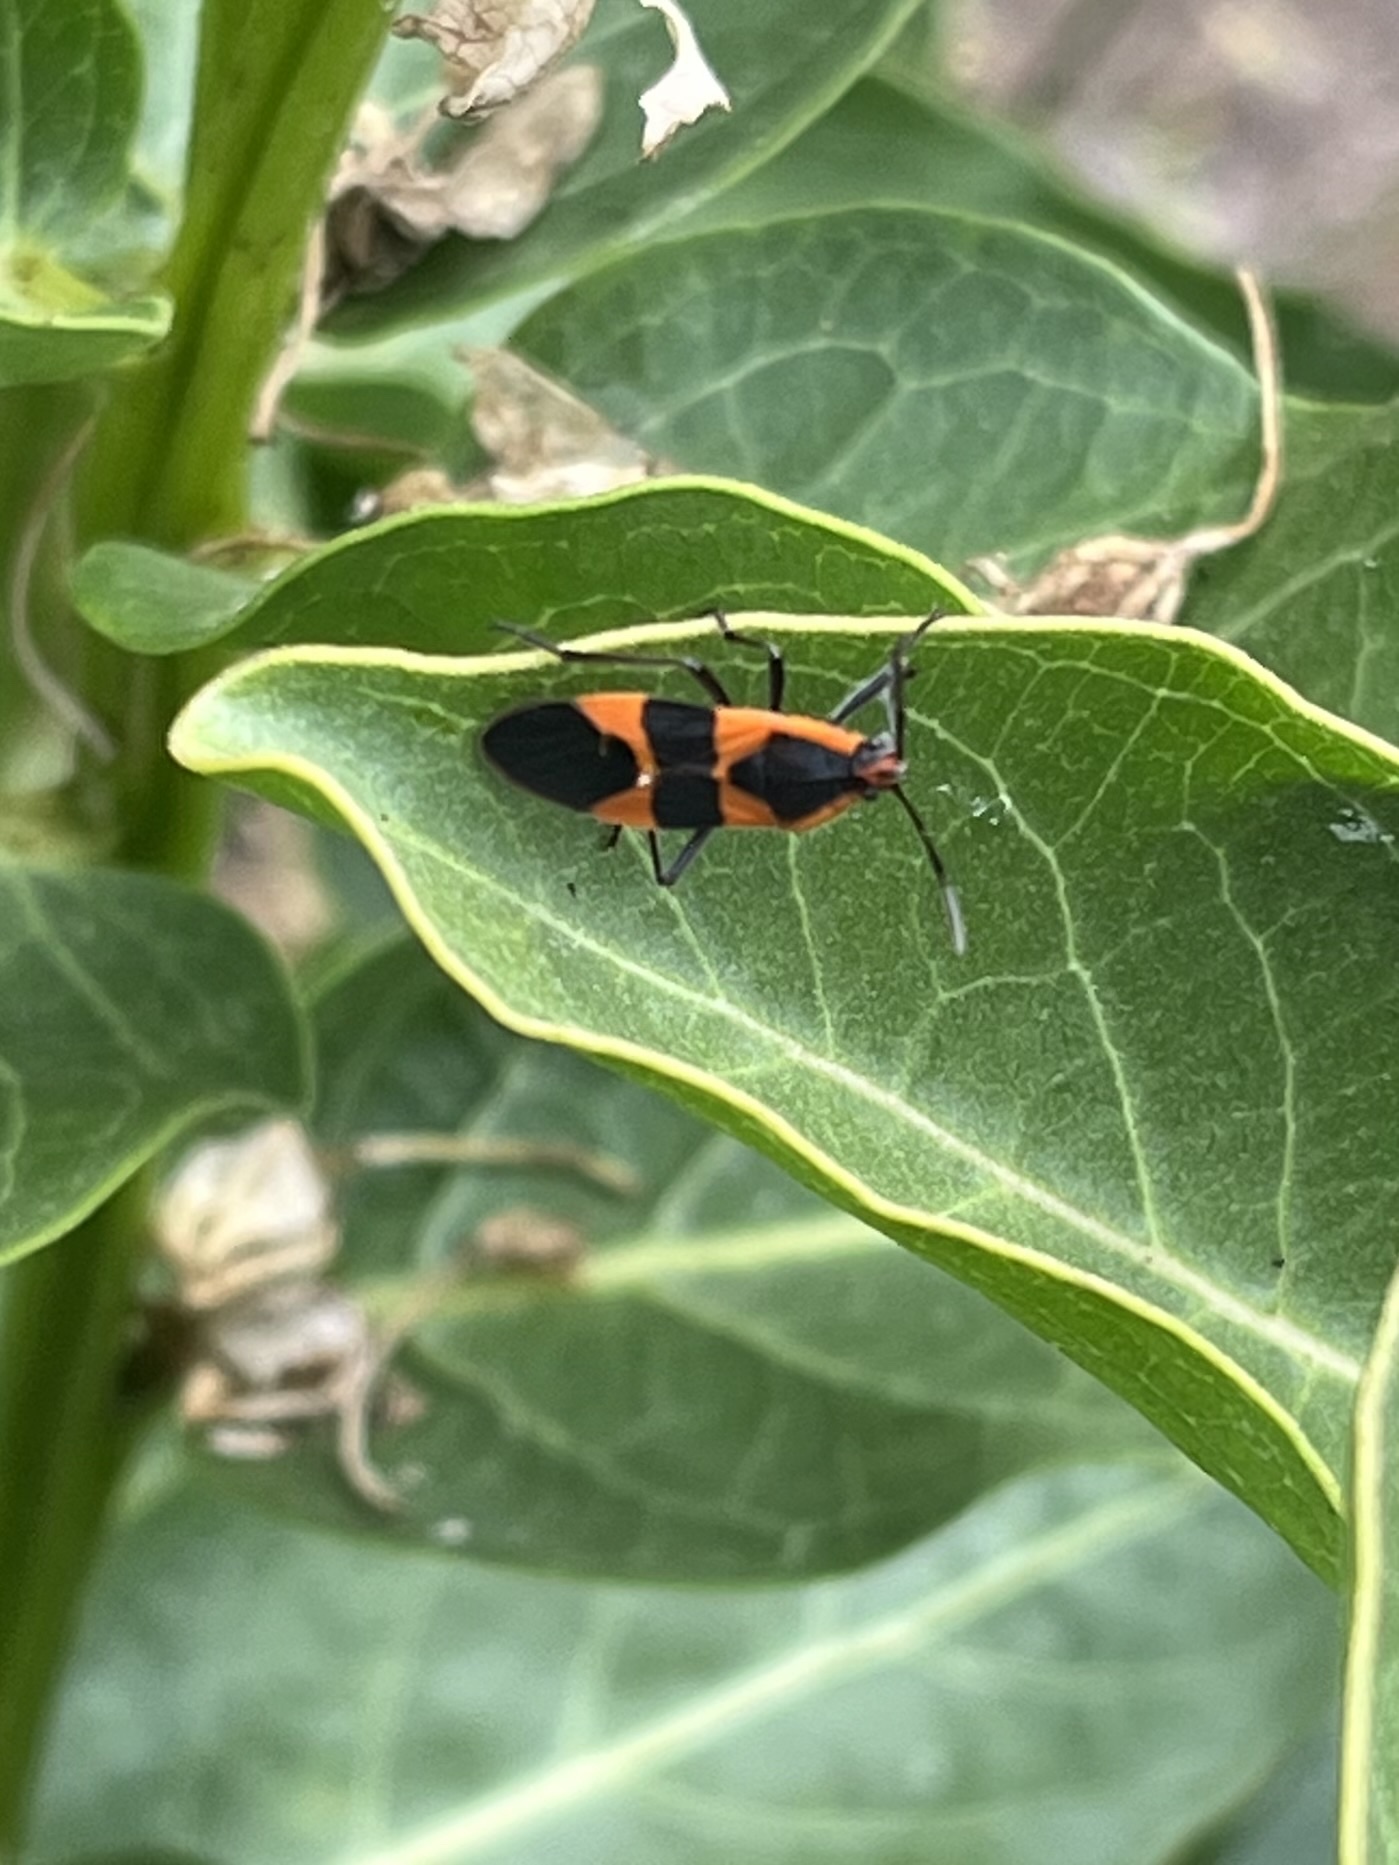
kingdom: Animalia
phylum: Arthropoda
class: Insecta
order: Hemiptera
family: Lygaeidae
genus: Oncopeltus
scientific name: Oncopeltus fasciatus
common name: Large milkweed bug
